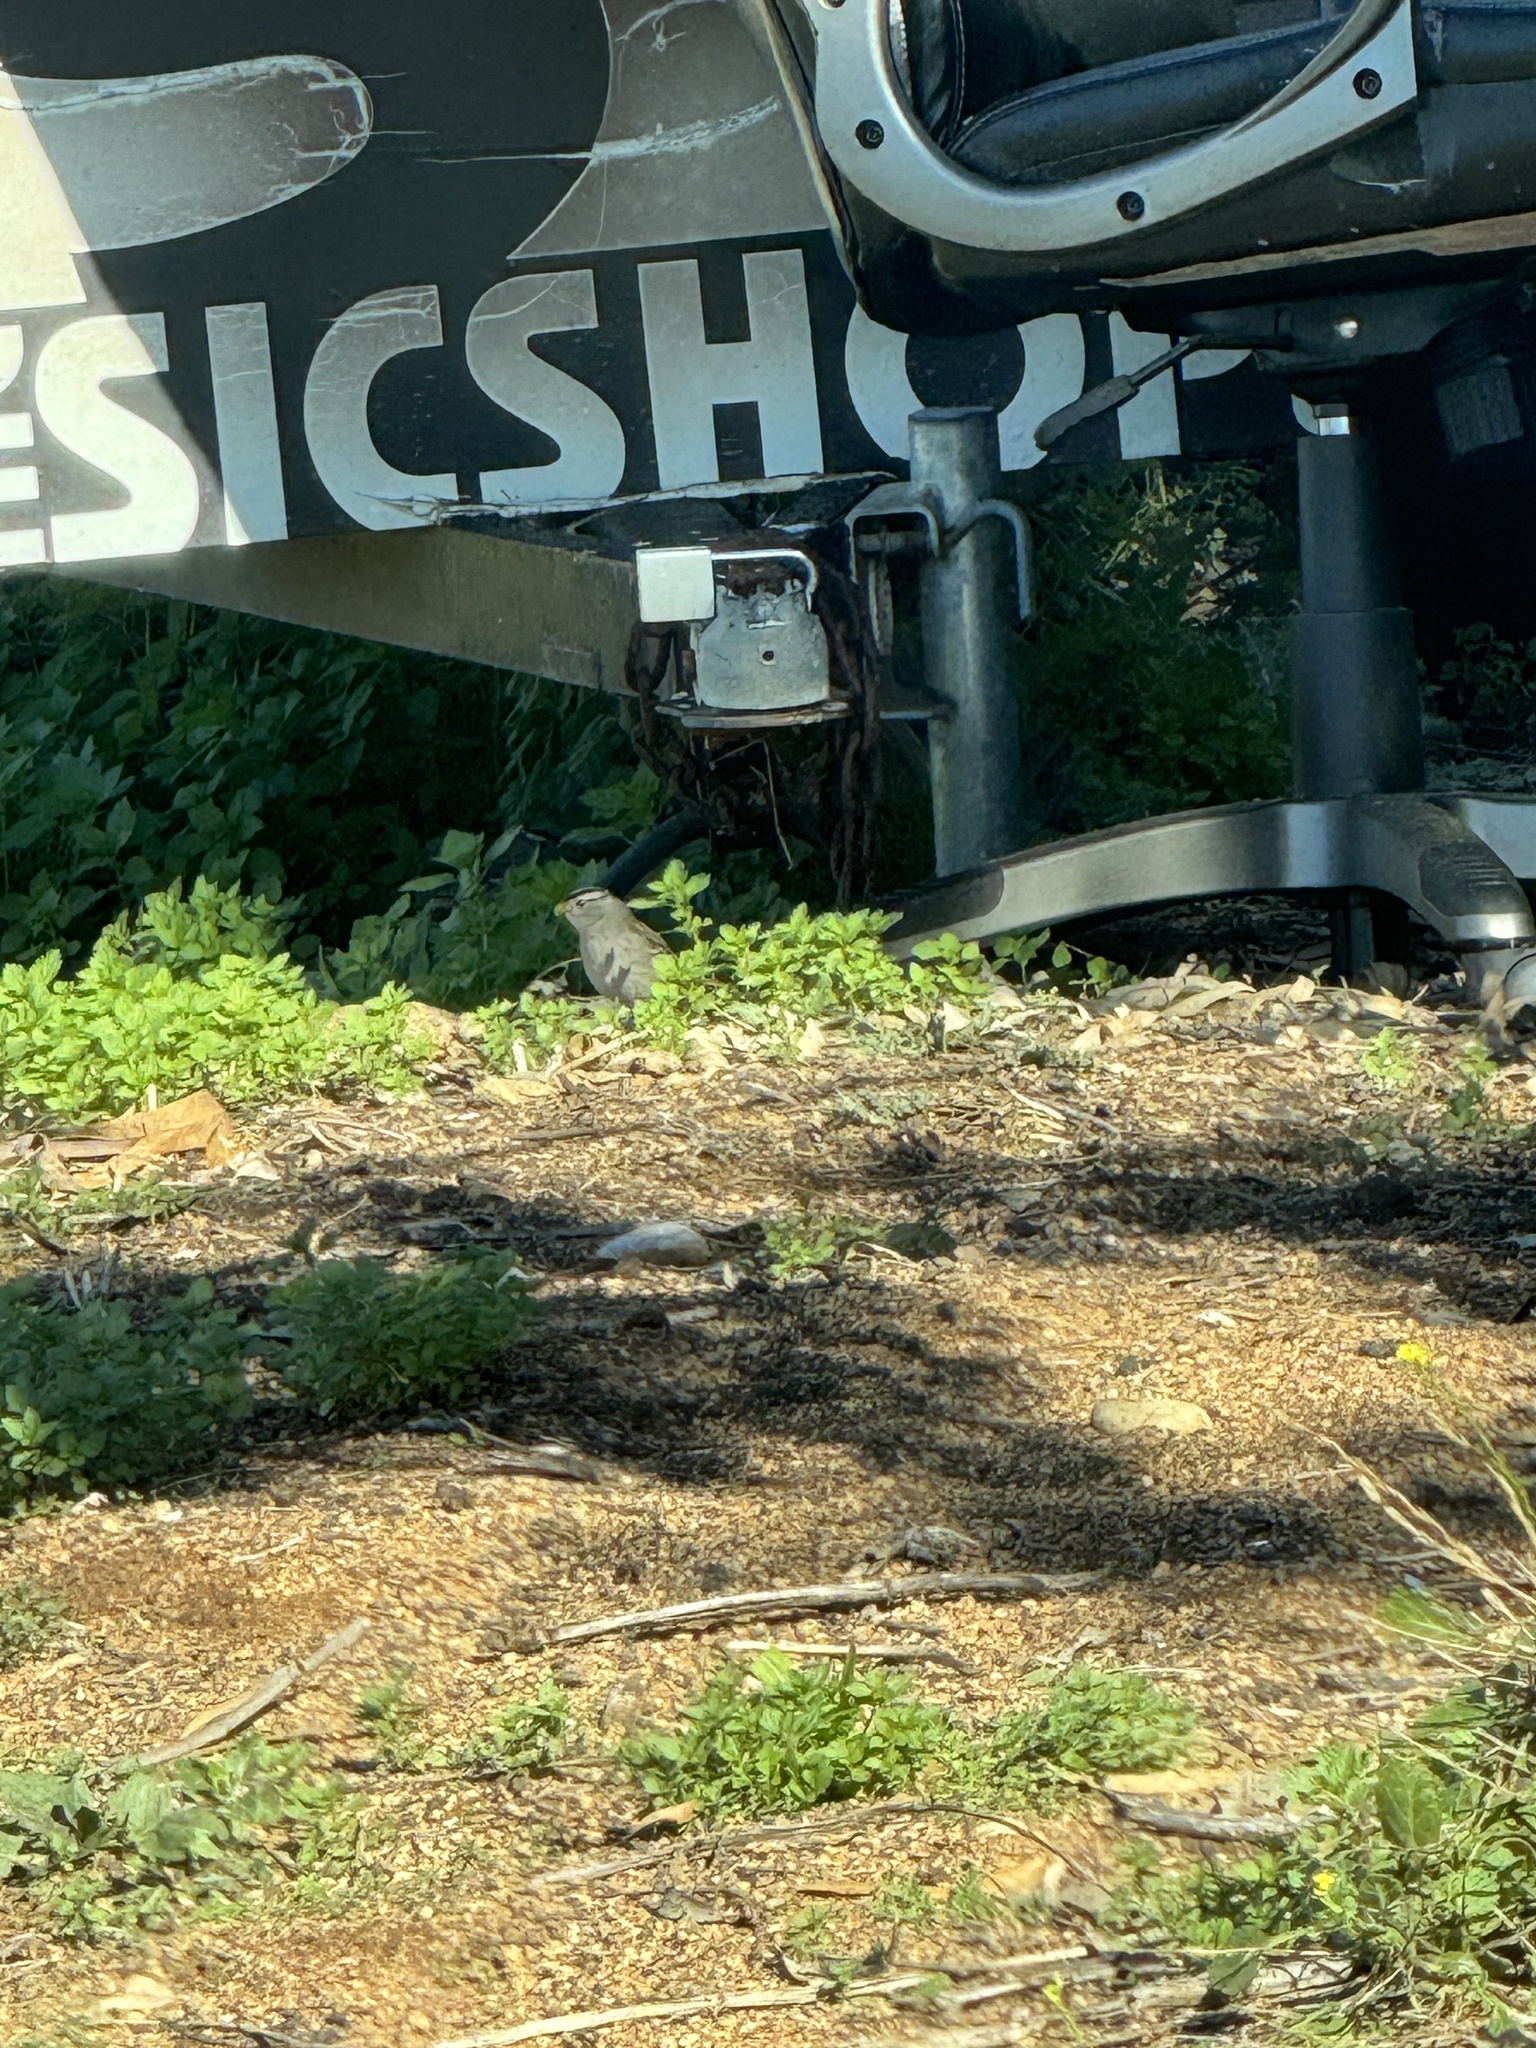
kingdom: Animalia
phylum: Chordata
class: Aves
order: Passeriformes
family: Passerellidae
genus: Zonotrichia
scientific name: Zonotrichia leucophrys
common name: White-crowned sparrow
